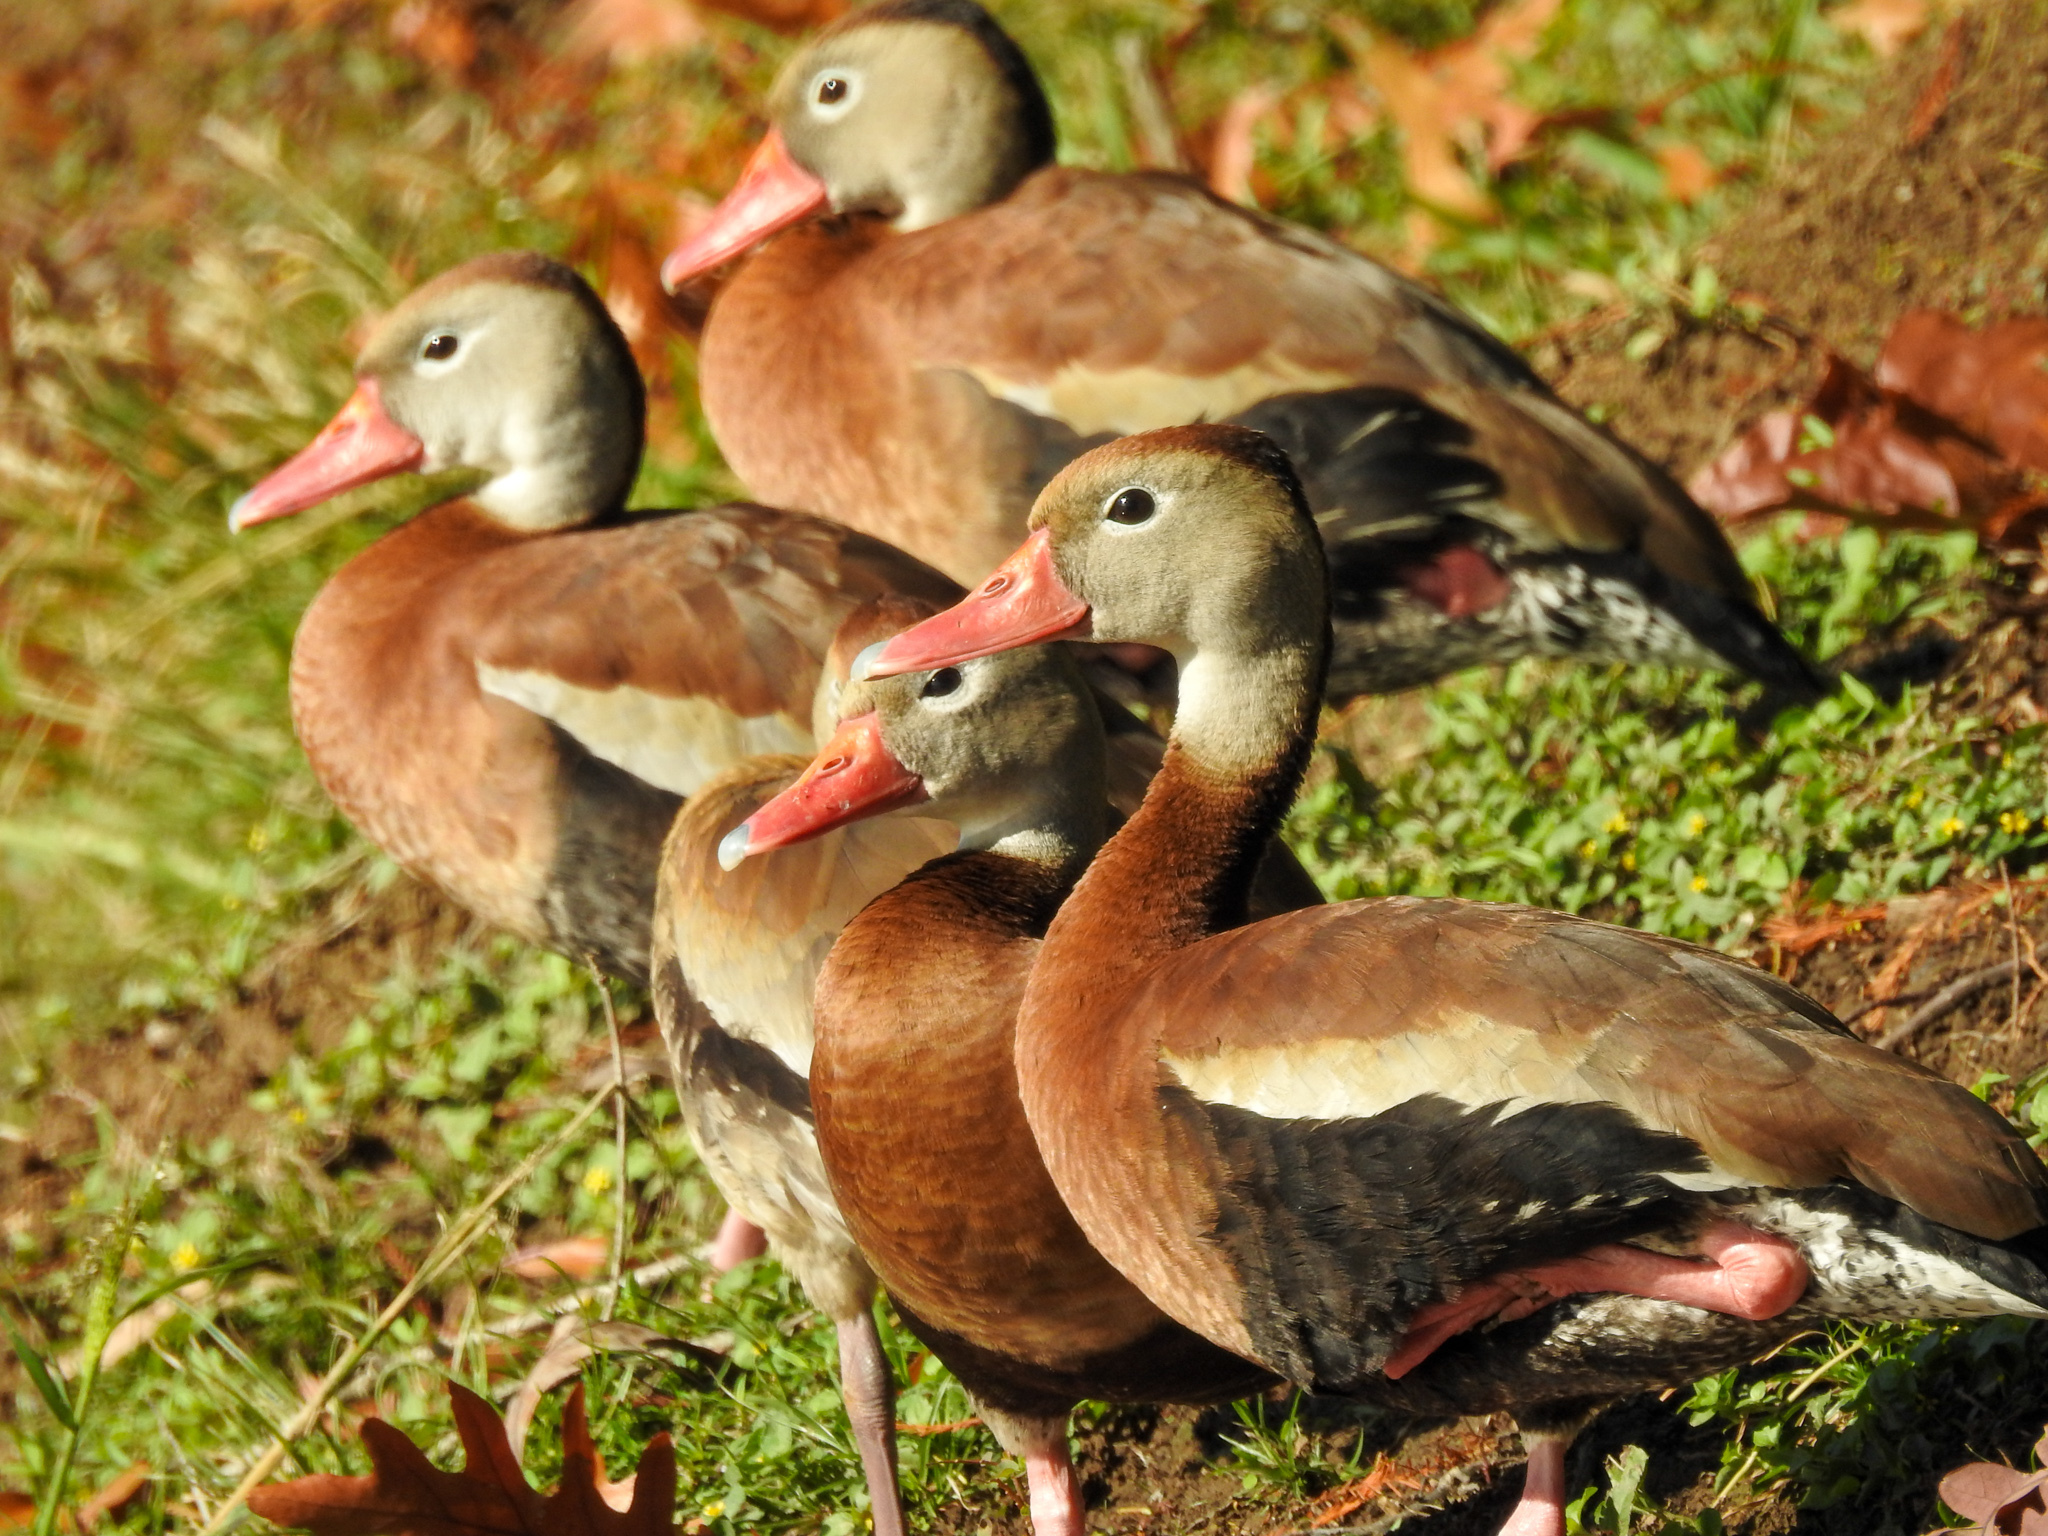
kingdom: Animalia
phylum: Chordata
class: Aves
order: Anseriformes
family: Anatidae
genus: Dendrocygna
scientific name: Dendrocygna autumnalis
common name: Black-bellied whistling duck
